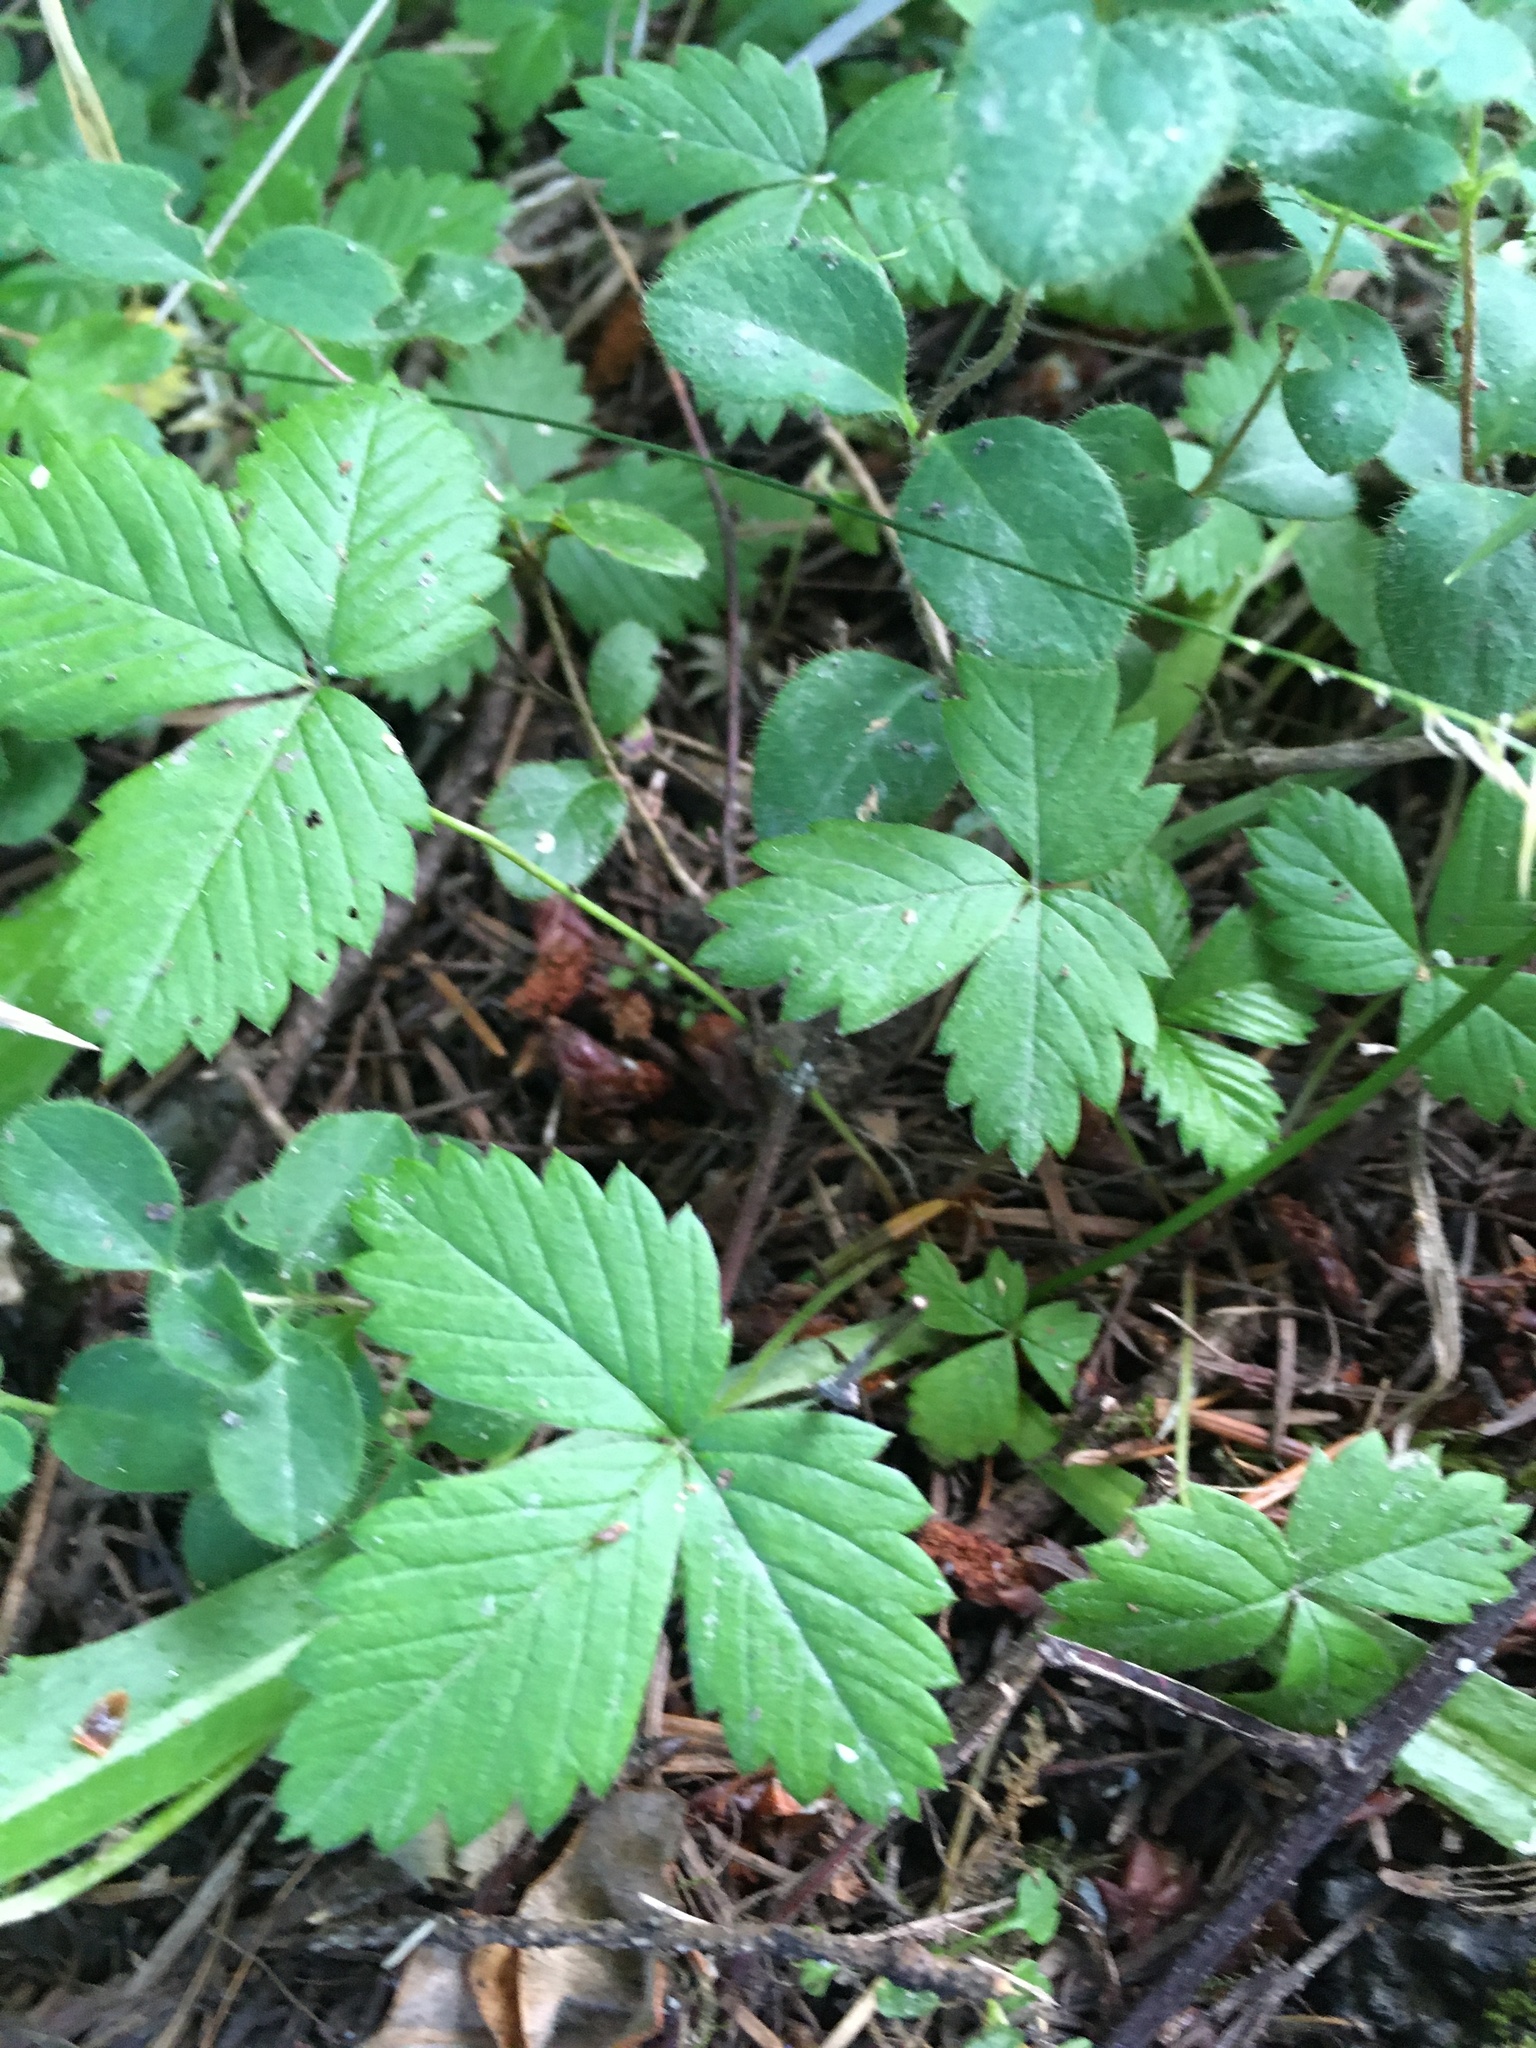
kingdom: Plantae
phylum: Tracheophyta
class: Magnoliopsida
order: Rosales
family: Rosaceae
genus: Fragaria
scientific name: Fragaria vesca
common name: Wild strawberry
